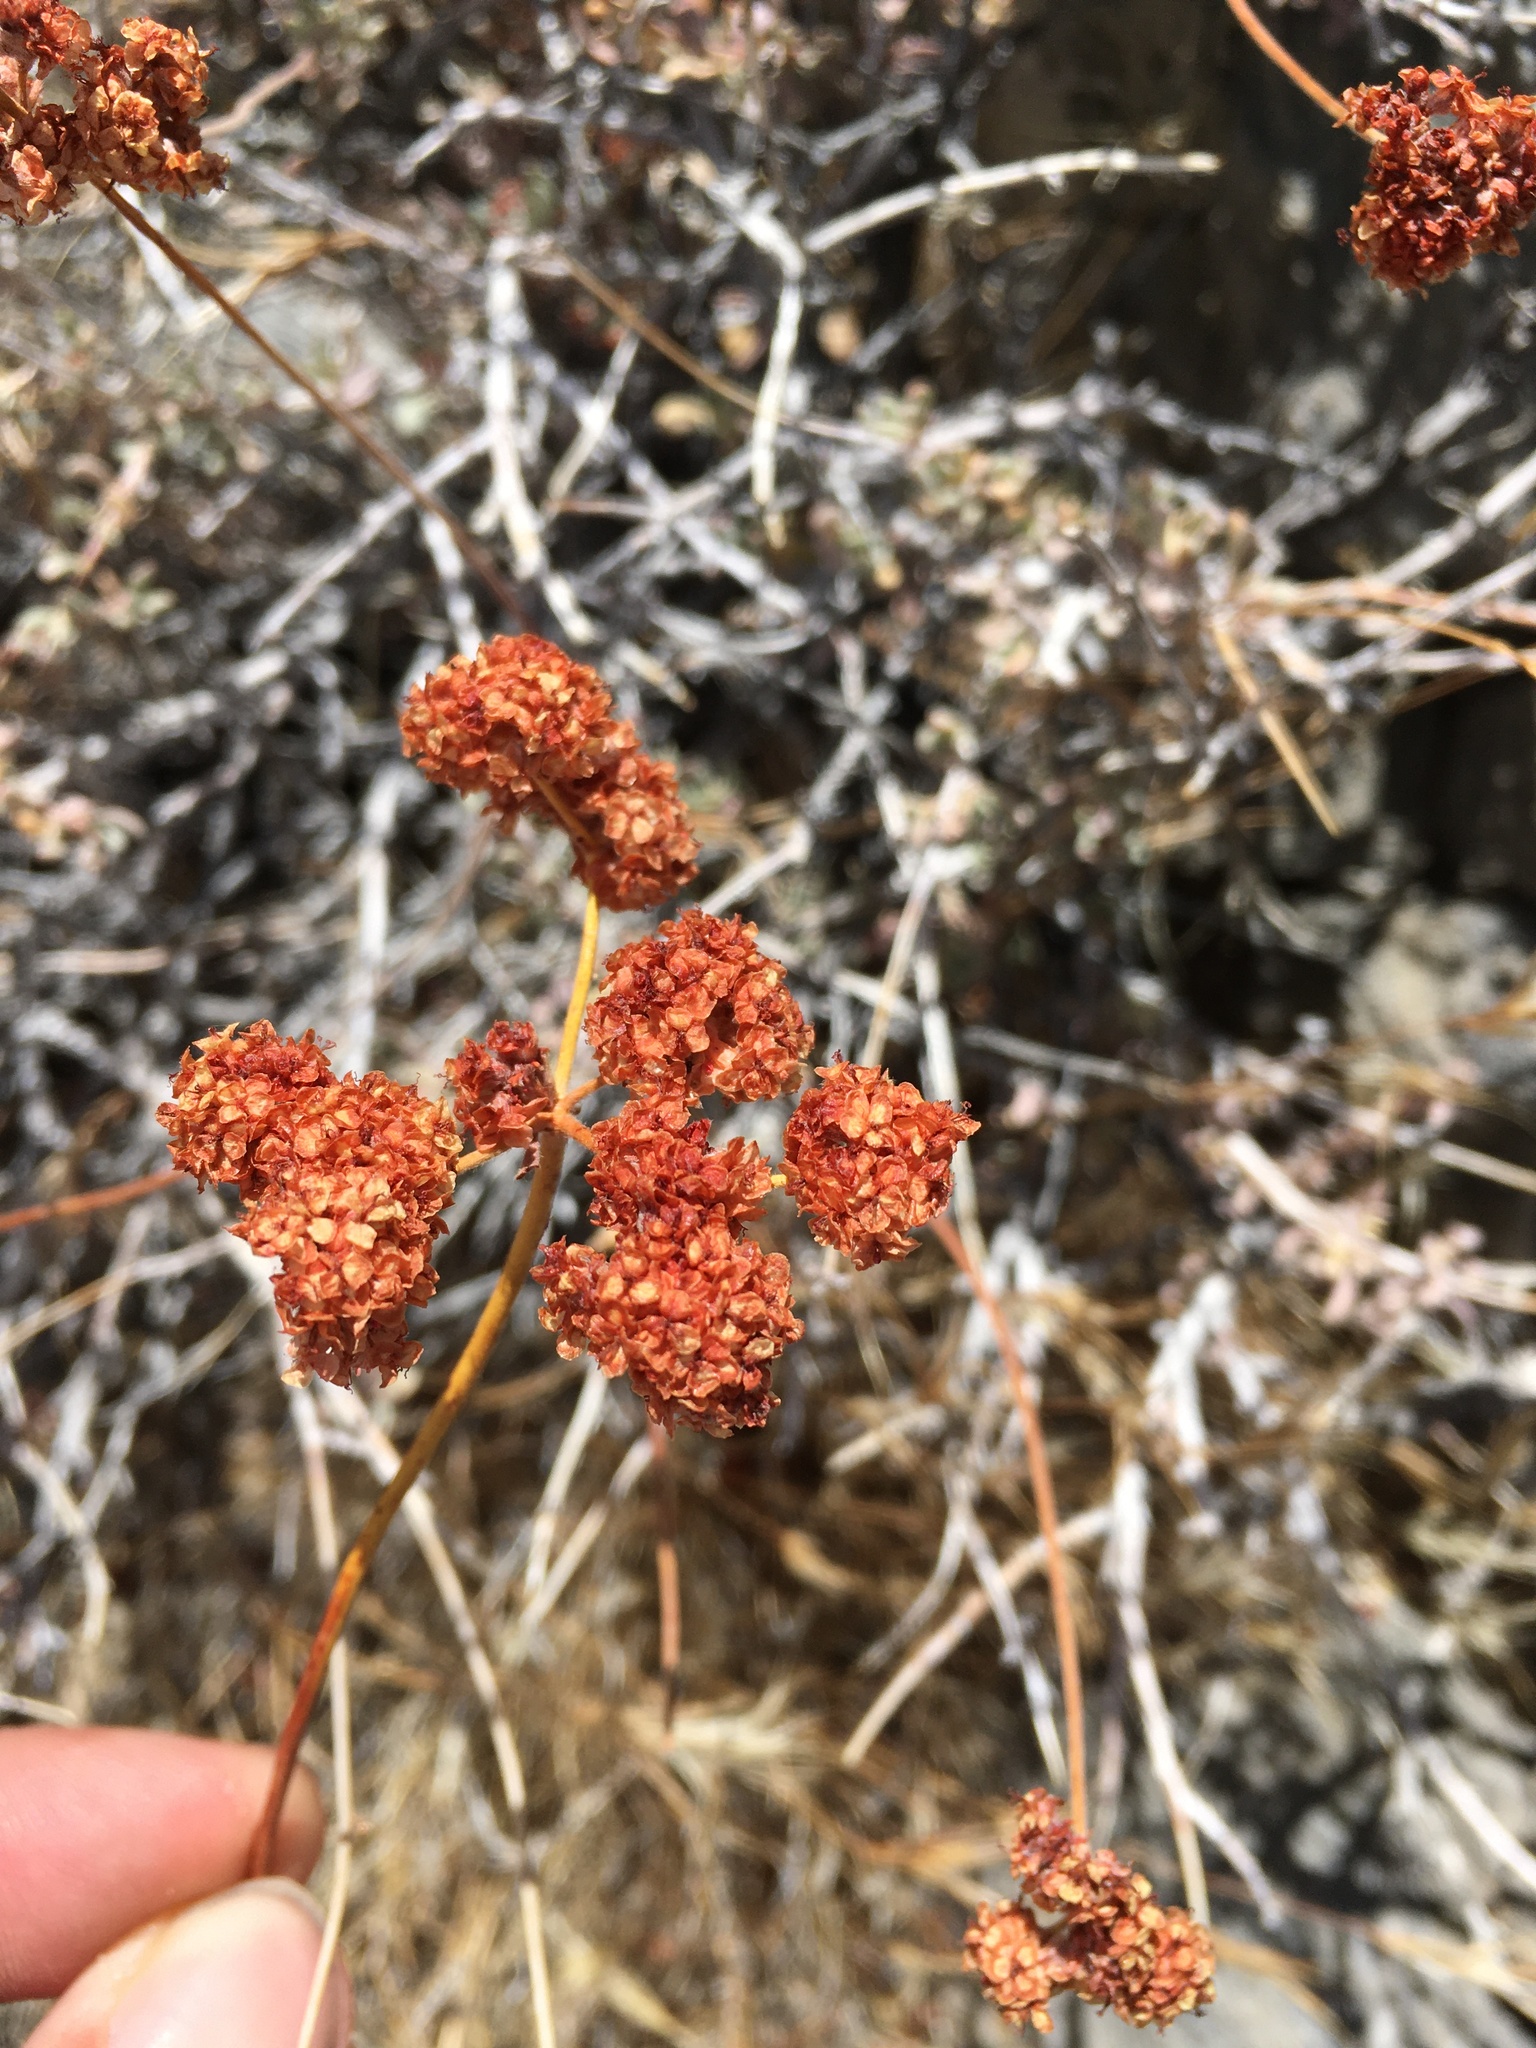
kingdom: Plantae
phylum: Tracheophyta
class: Magnoliopsida
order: Caryophyllales
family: Polygonaceae
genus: Eriogonum
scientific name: Eriogonum fasciculatum
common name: California wild buckwheat
